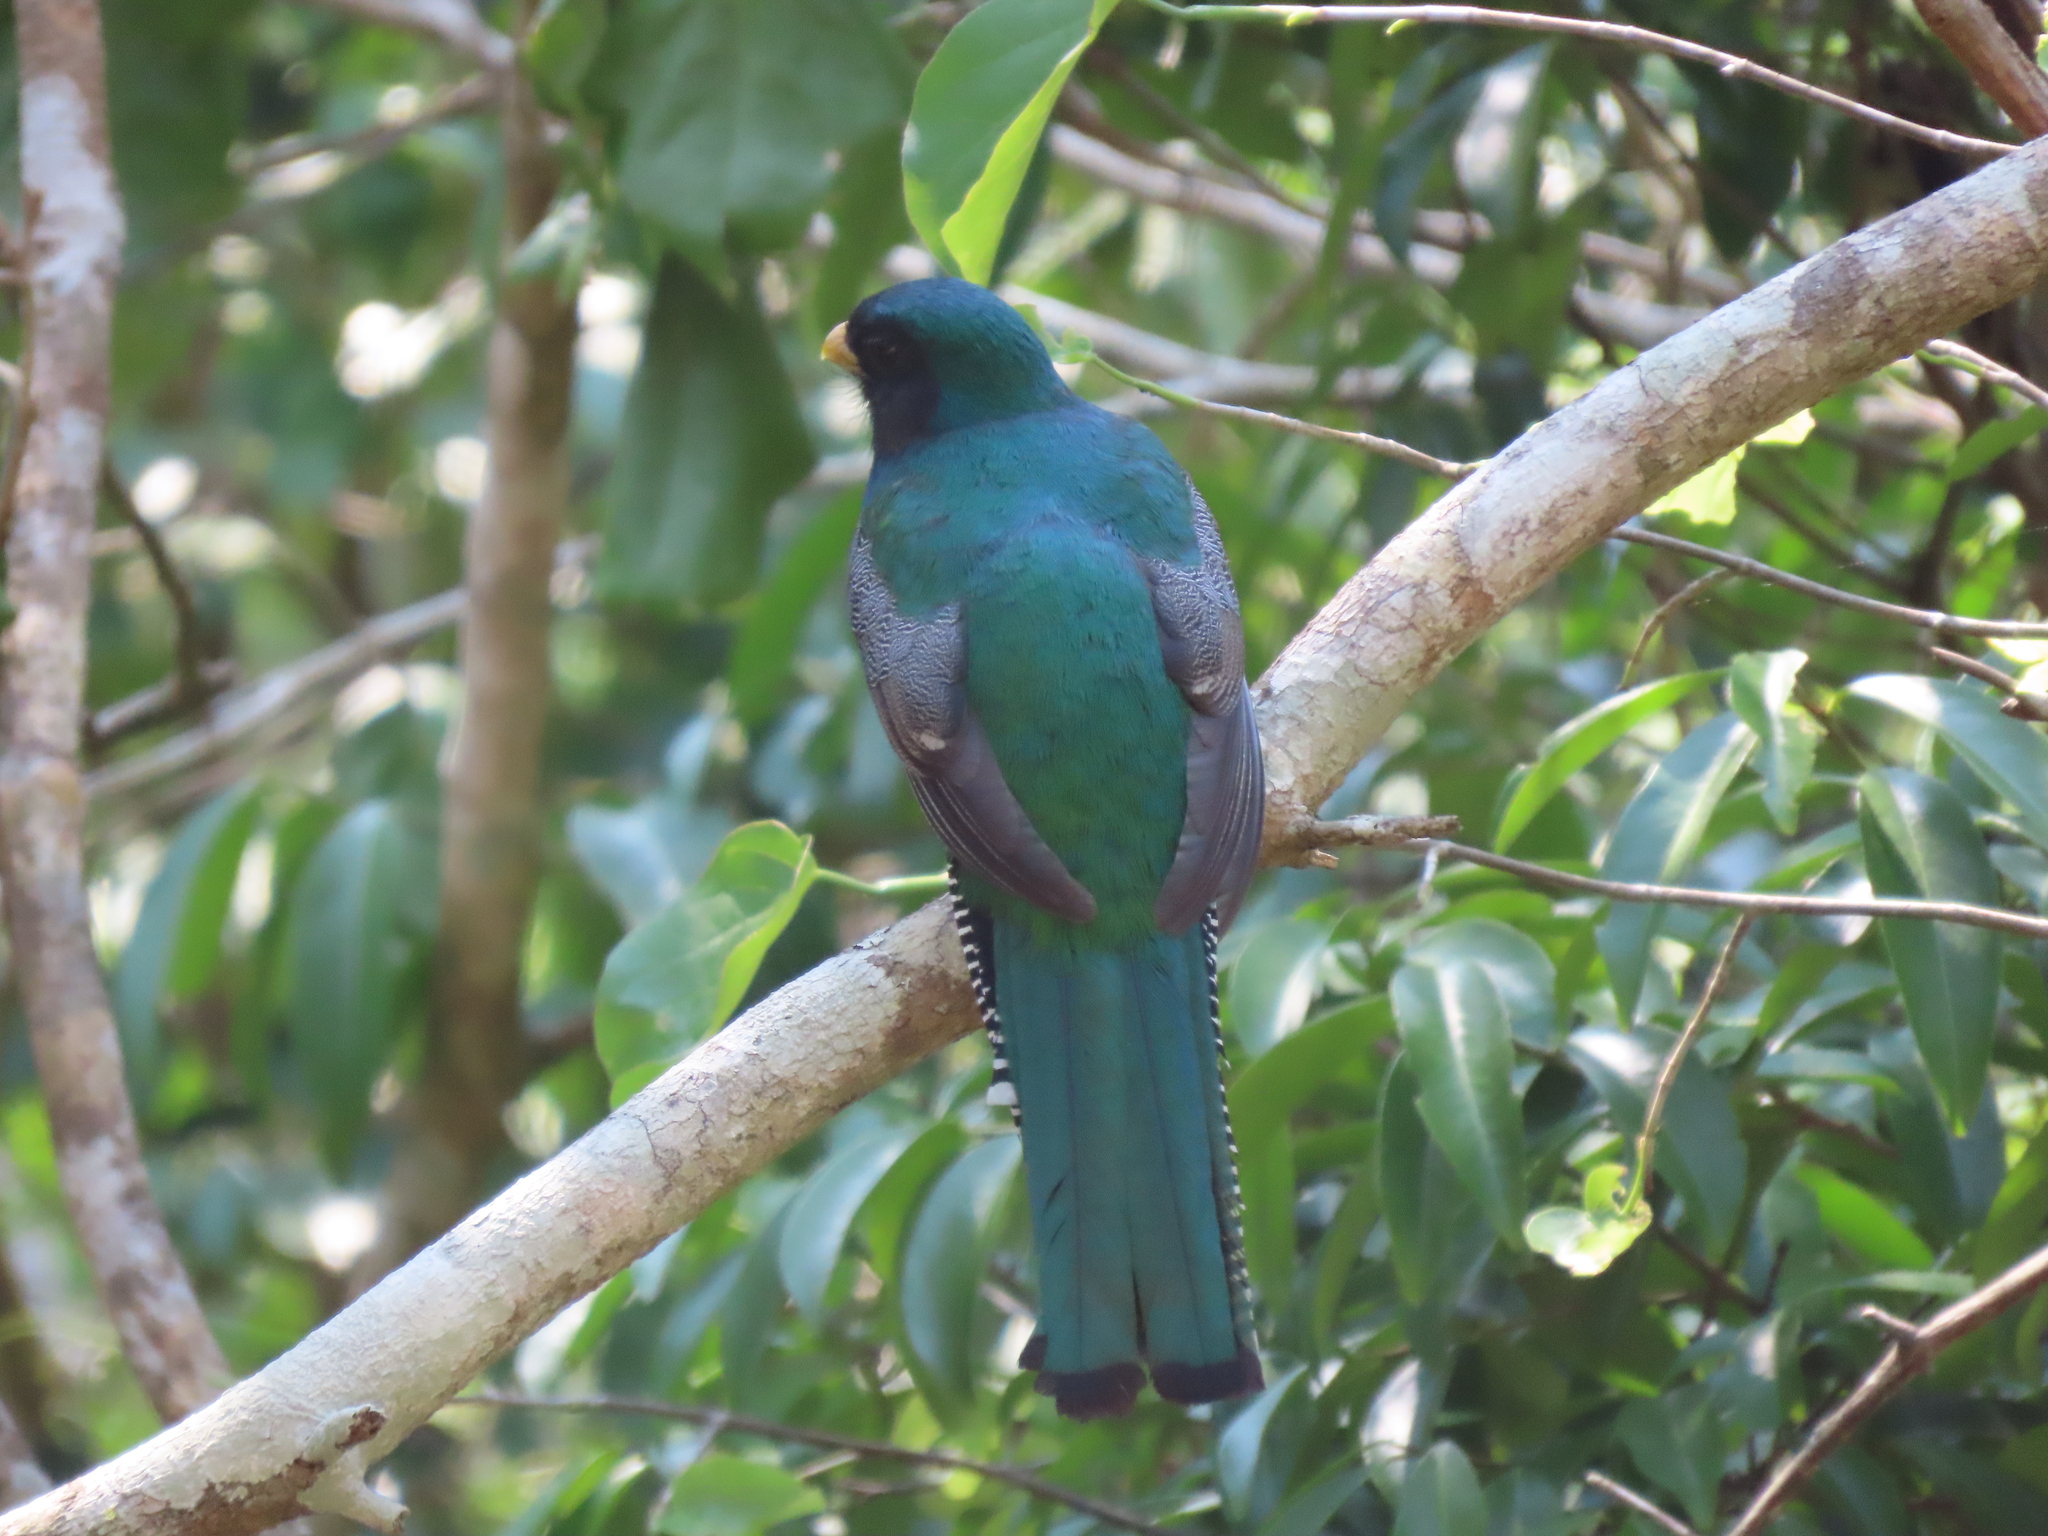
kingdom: Animalia
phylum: Chordata
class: Aves
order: Trogoniformes
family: Trogonidae
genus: Trogon
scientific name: Trogon collaris
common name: Collared trogon
